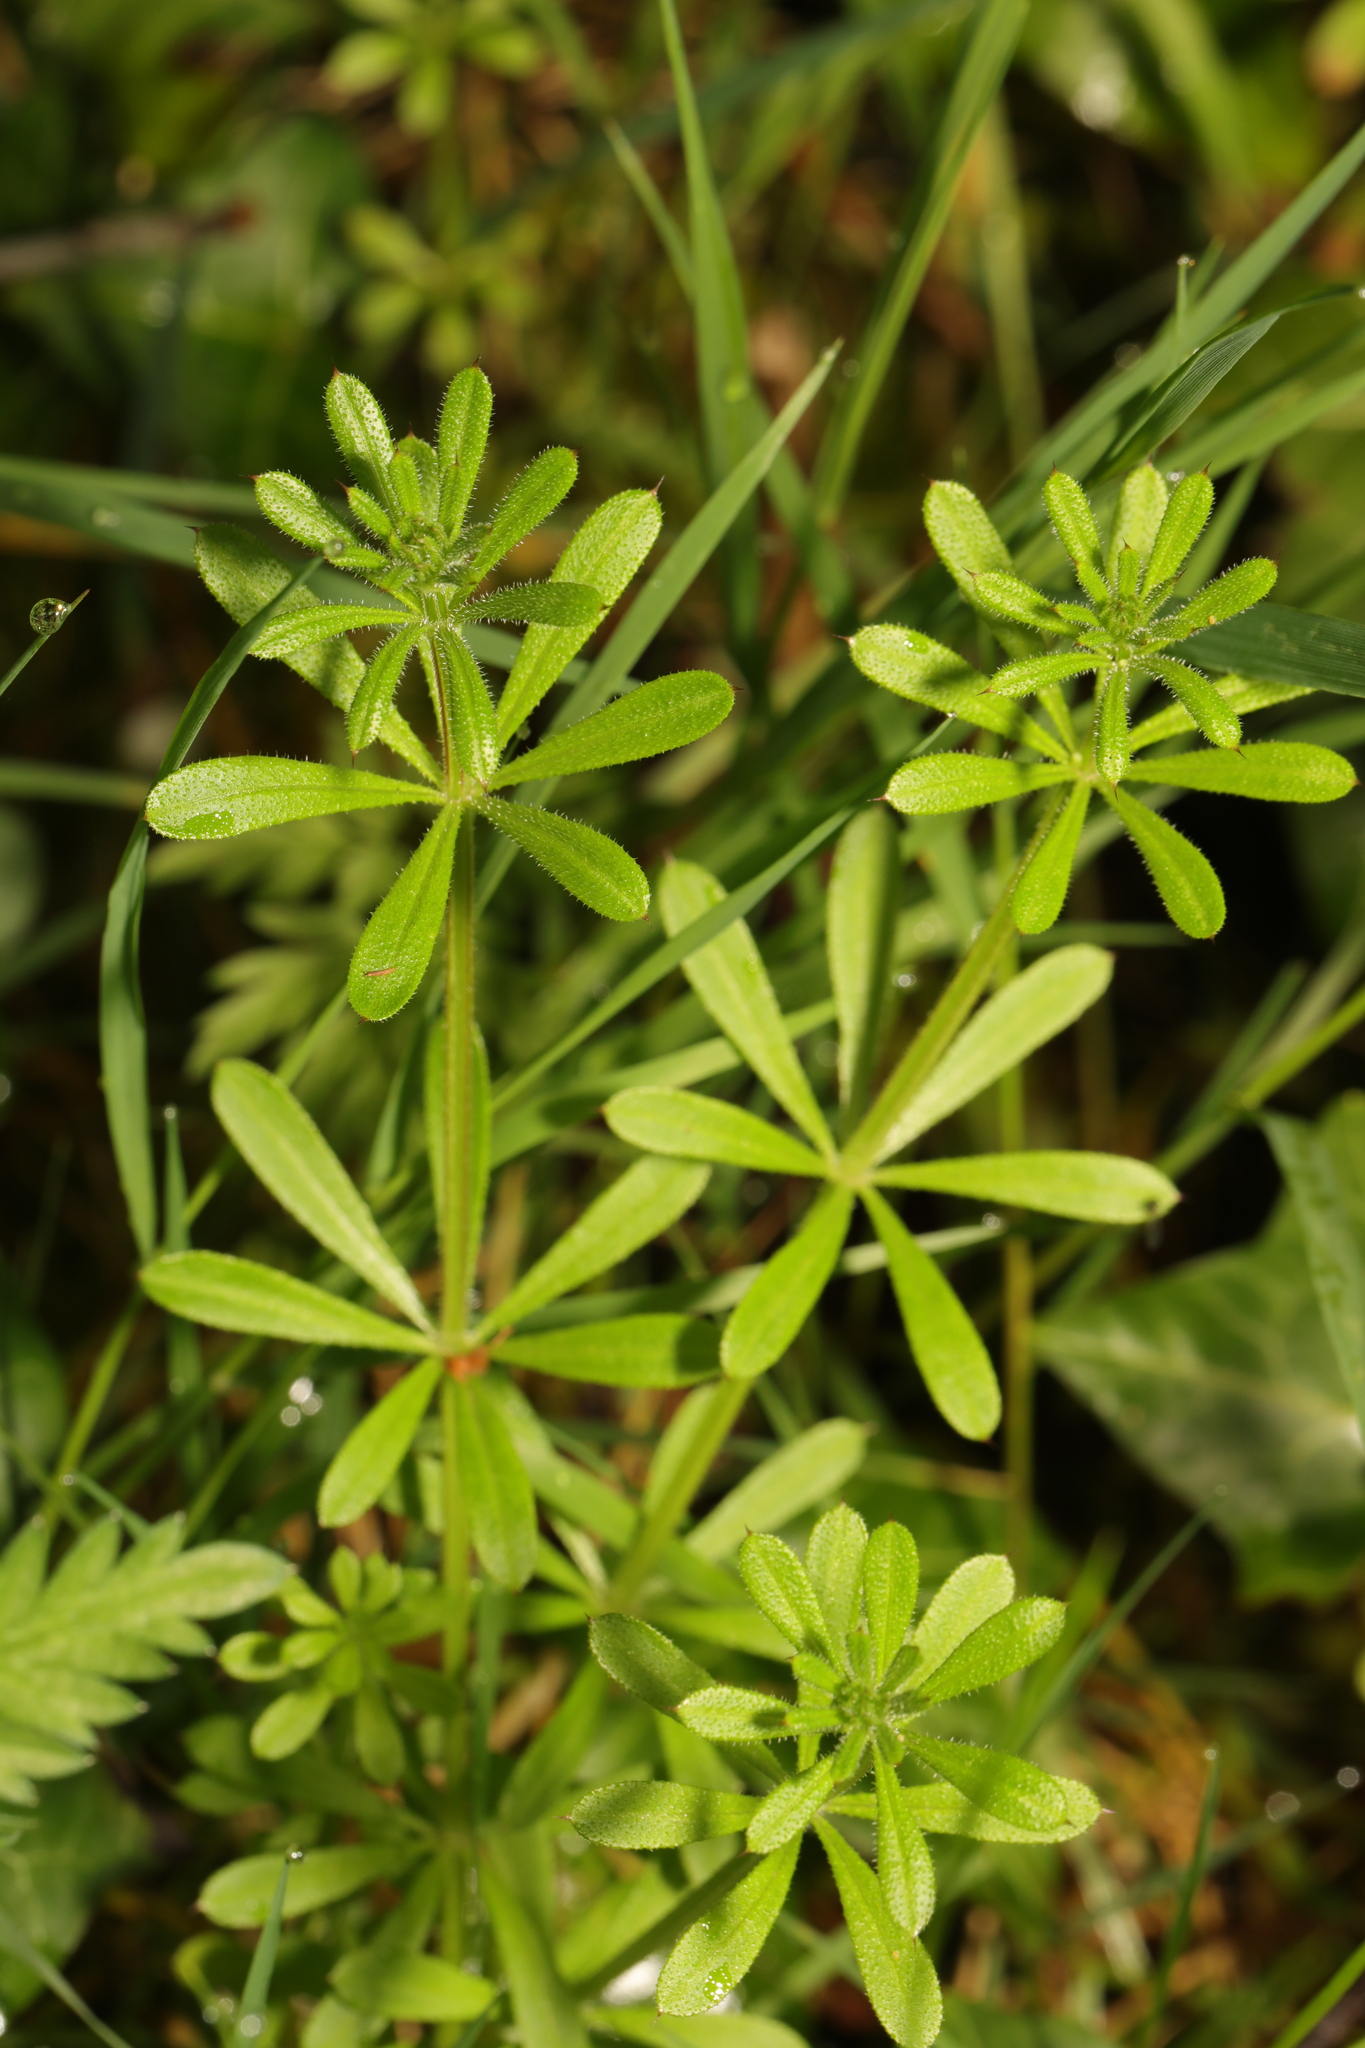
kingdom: Plantae
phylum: Tracheophyta
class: Magnoliopsida
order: Gentianales
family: Rubiaceae
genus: Galium
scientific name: Galium aparine
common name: Cleavers
